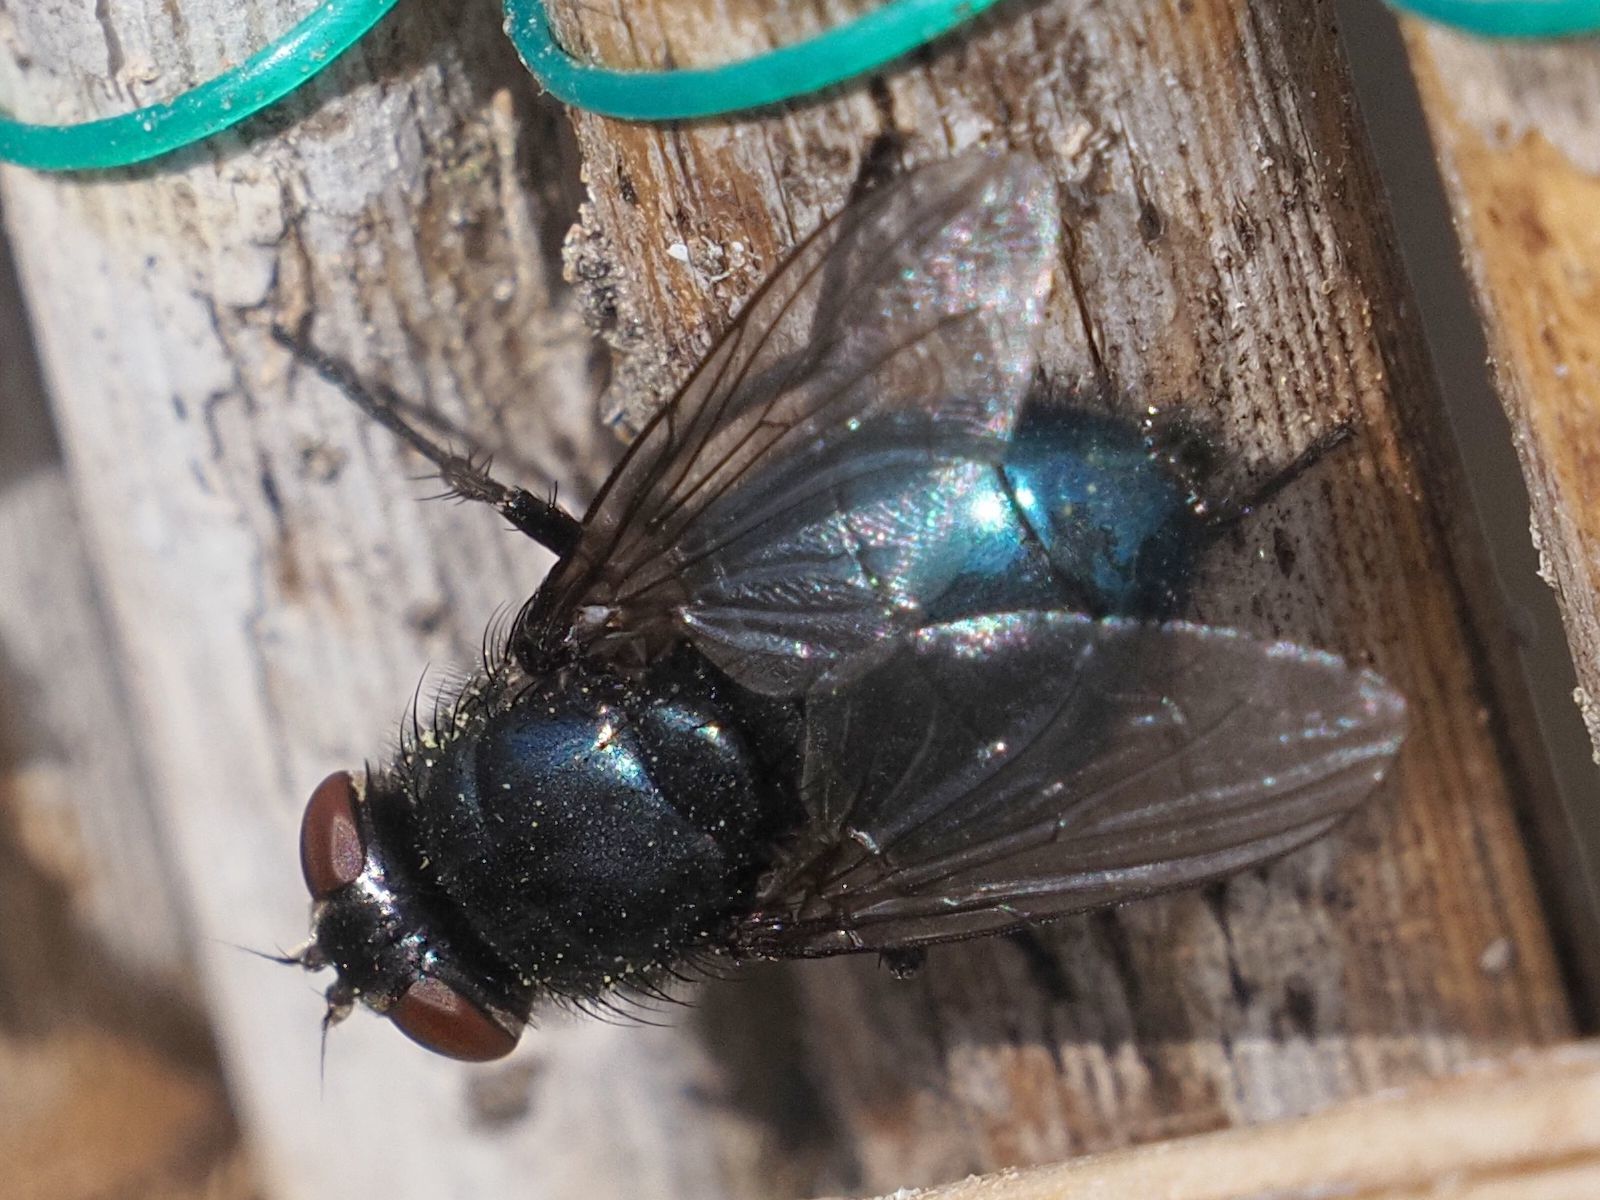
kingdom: Animalia
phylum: Arthropoda
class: Insecta
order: Diptera
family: Calliphoridae
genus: Protophormia
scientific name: Protophormia terraenovae
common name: Blackbottle
